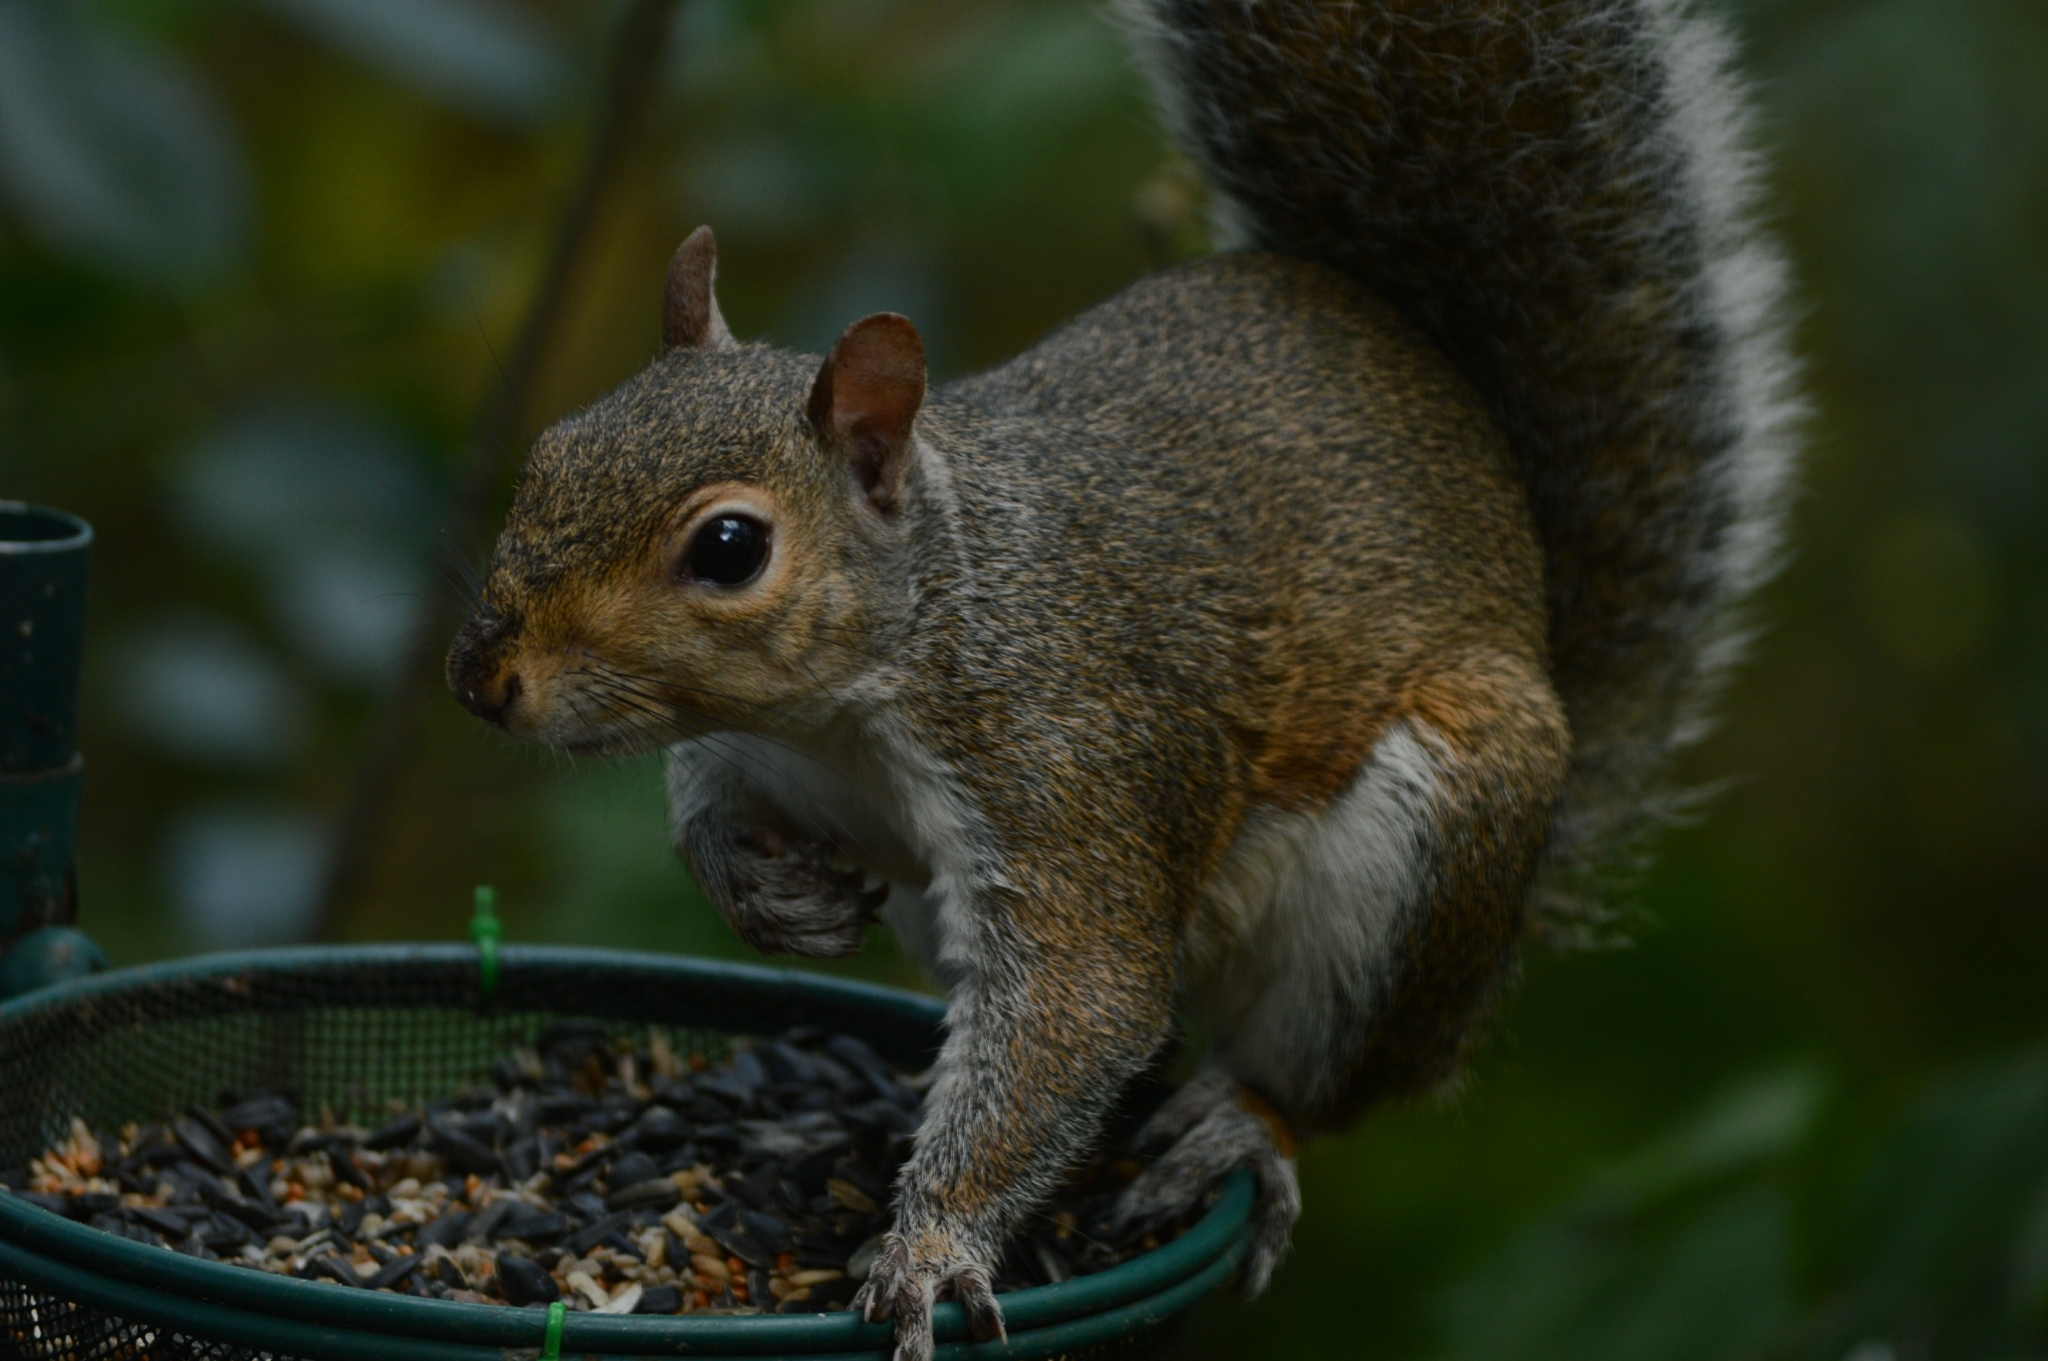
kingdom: Animalia
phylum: Chordata
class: Mammalia
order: Rodentia
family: Sciuridae
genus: Sciurus
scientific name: Sciurus carolinensis
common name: Eastern gray squirrel
